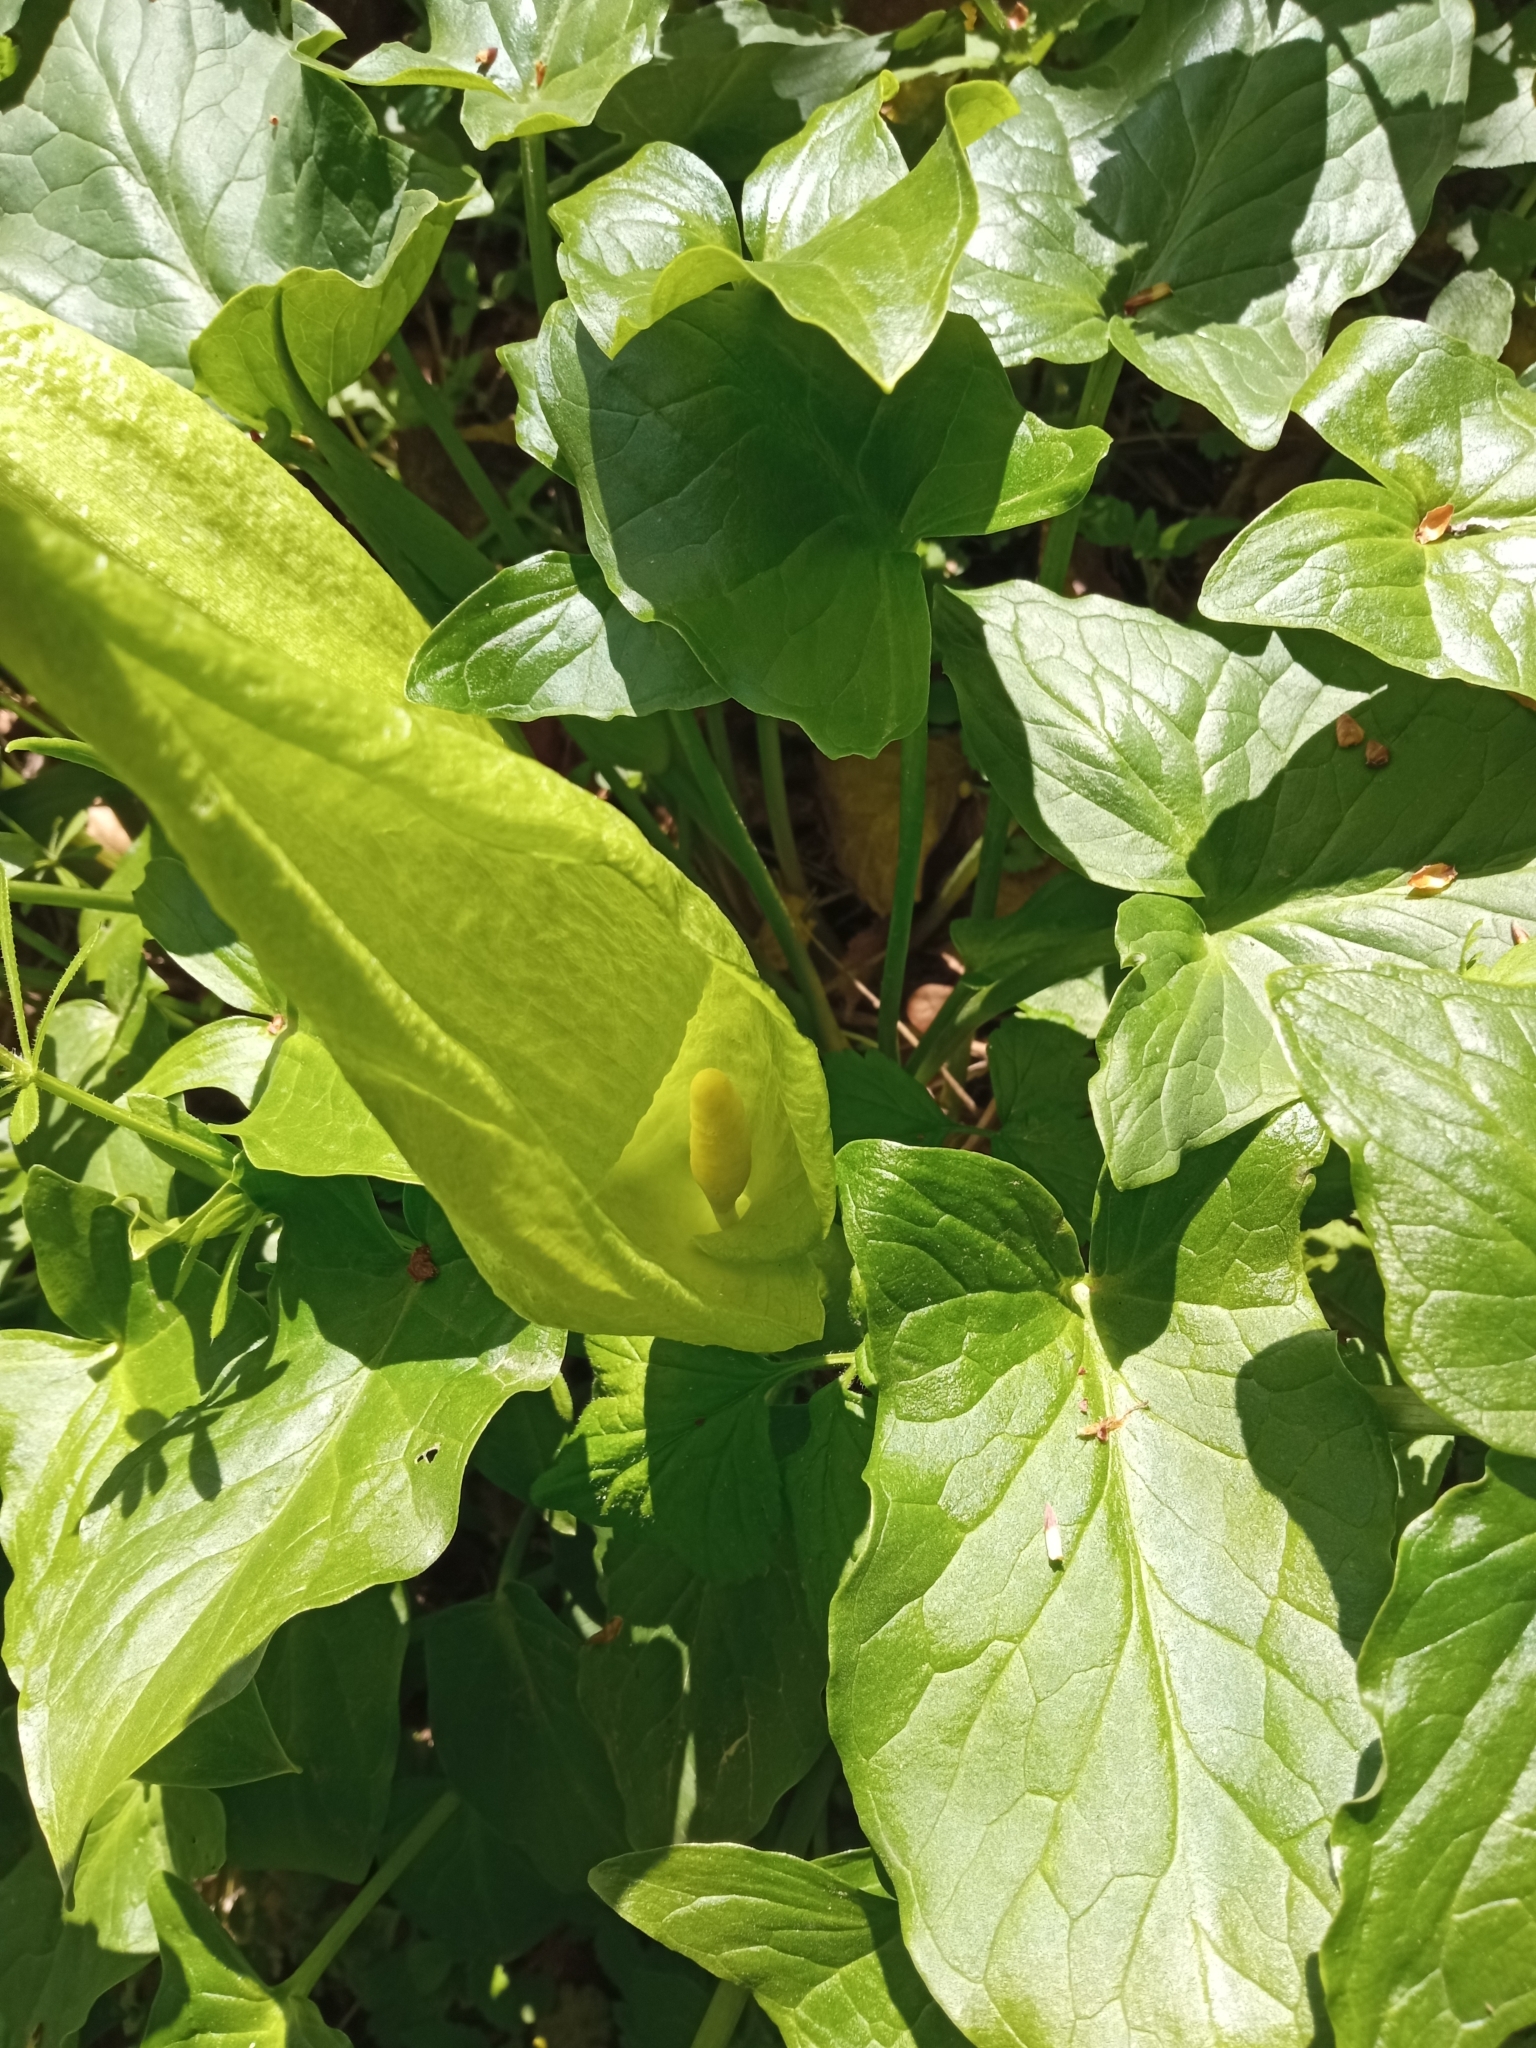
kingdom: Plantae
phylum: Tracheophyta
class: Liliopsida
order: Alismatales
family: Araceae
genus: Arum
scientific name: Arum italicum
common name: Italian lords-and-ladies
